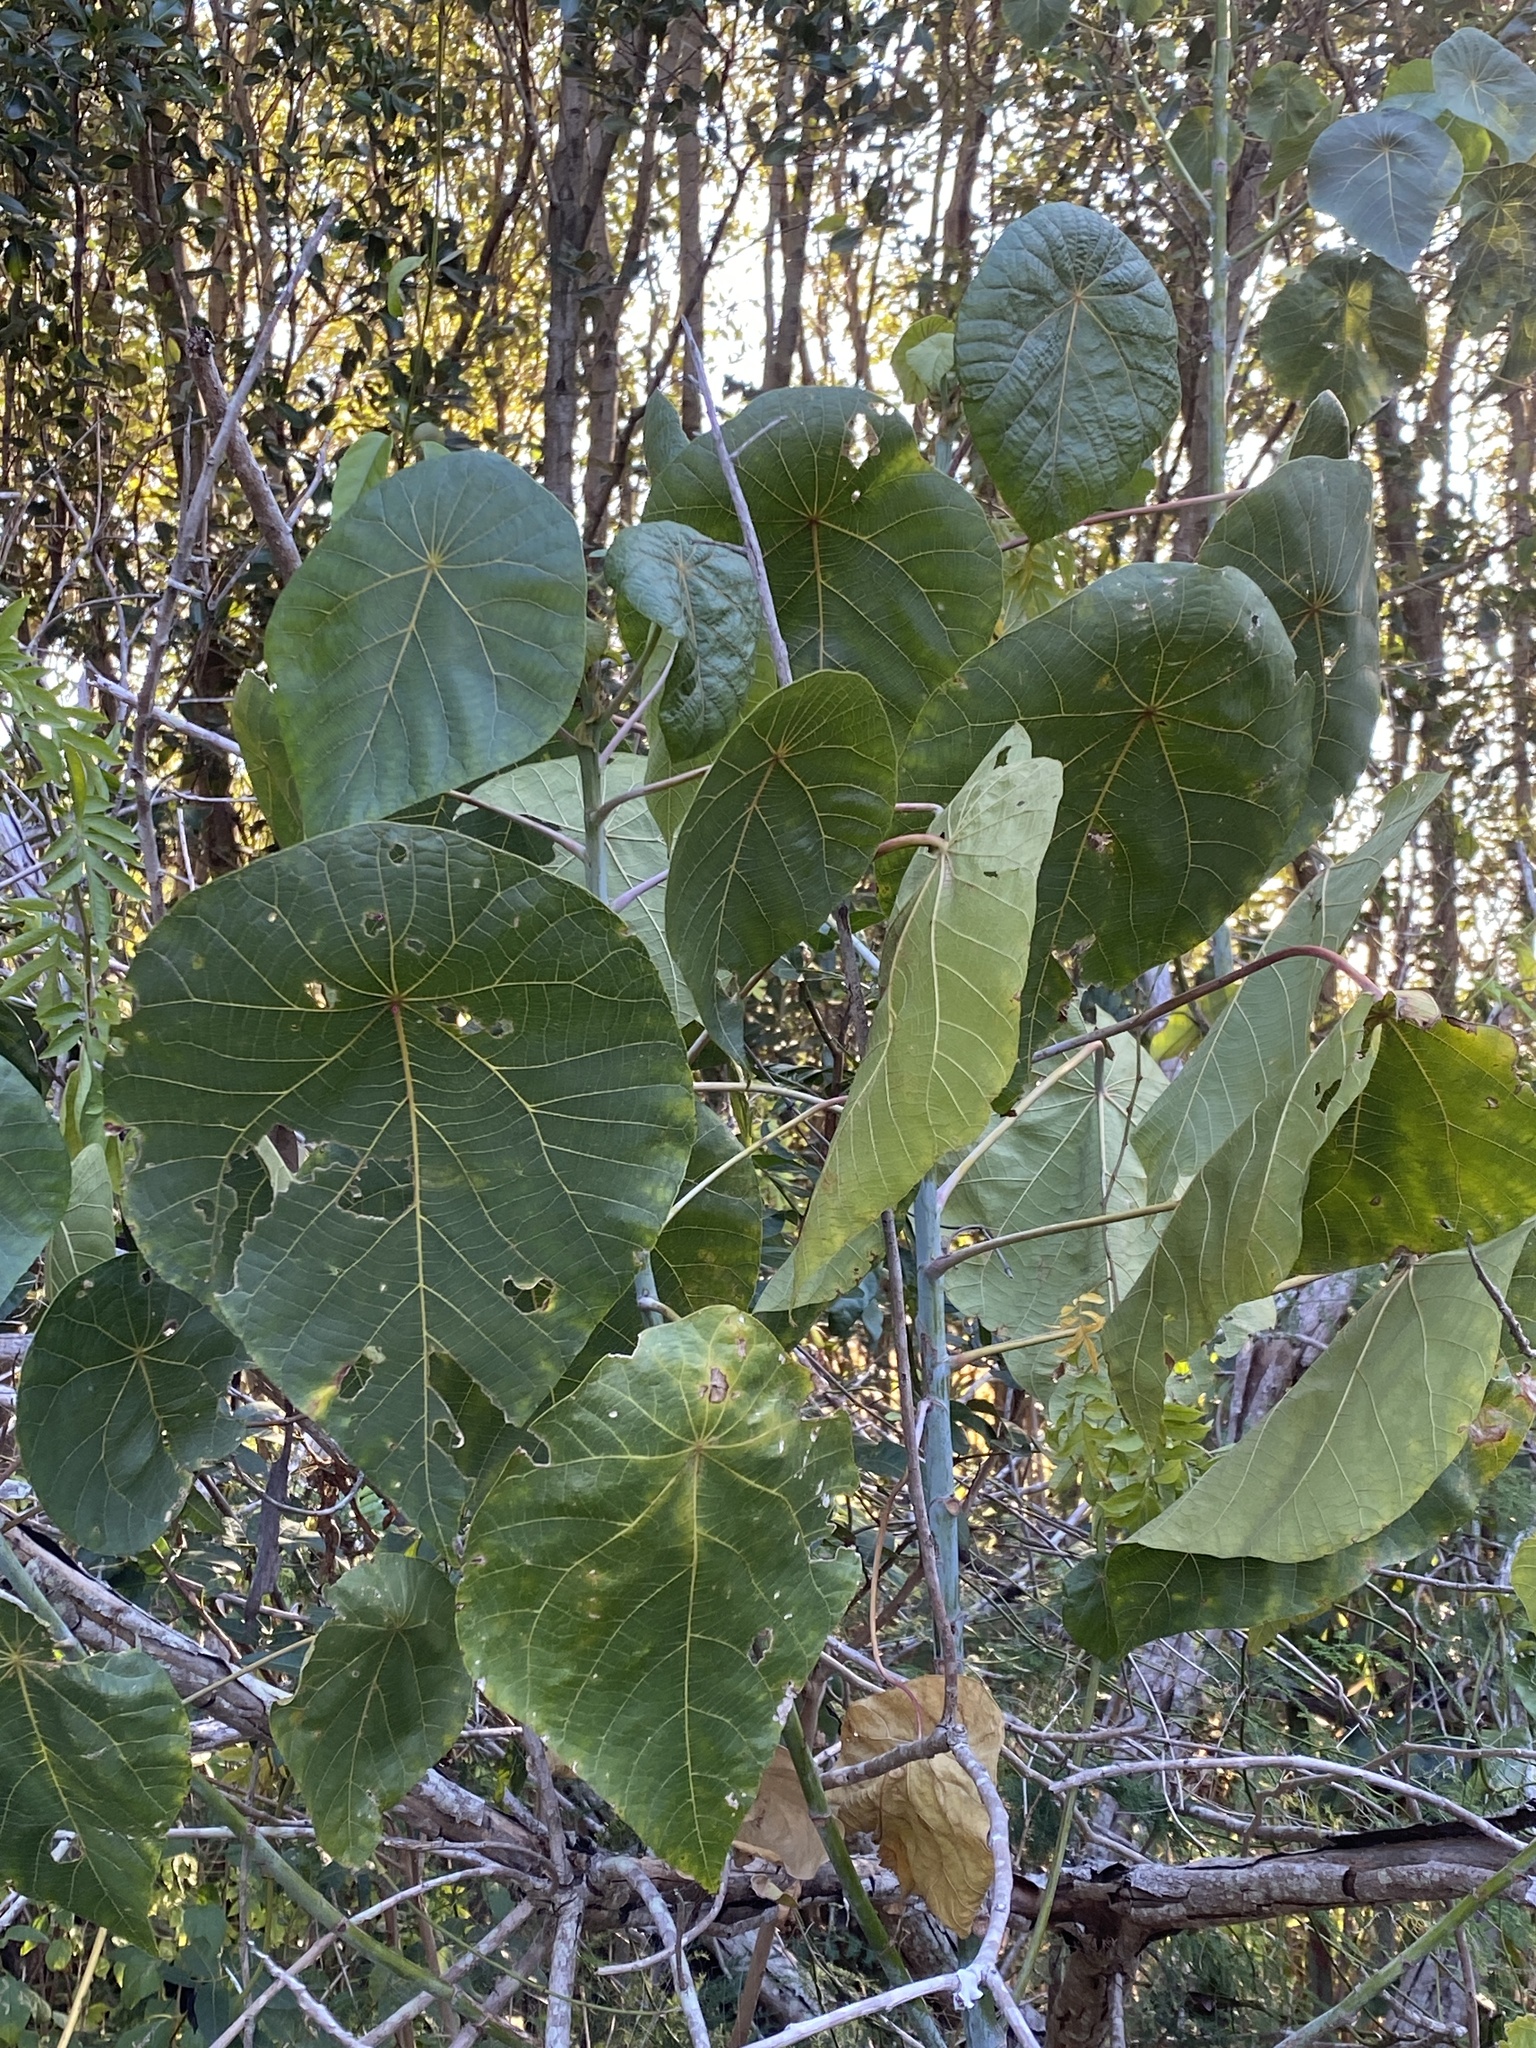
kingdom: Plantae
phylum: Tracheophyta
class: Magnoliopsida
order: Malpighiales
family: Euphorbiaceae
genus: Macaranga
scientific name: Macaranga tanarius
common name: Parasol leaf tree
